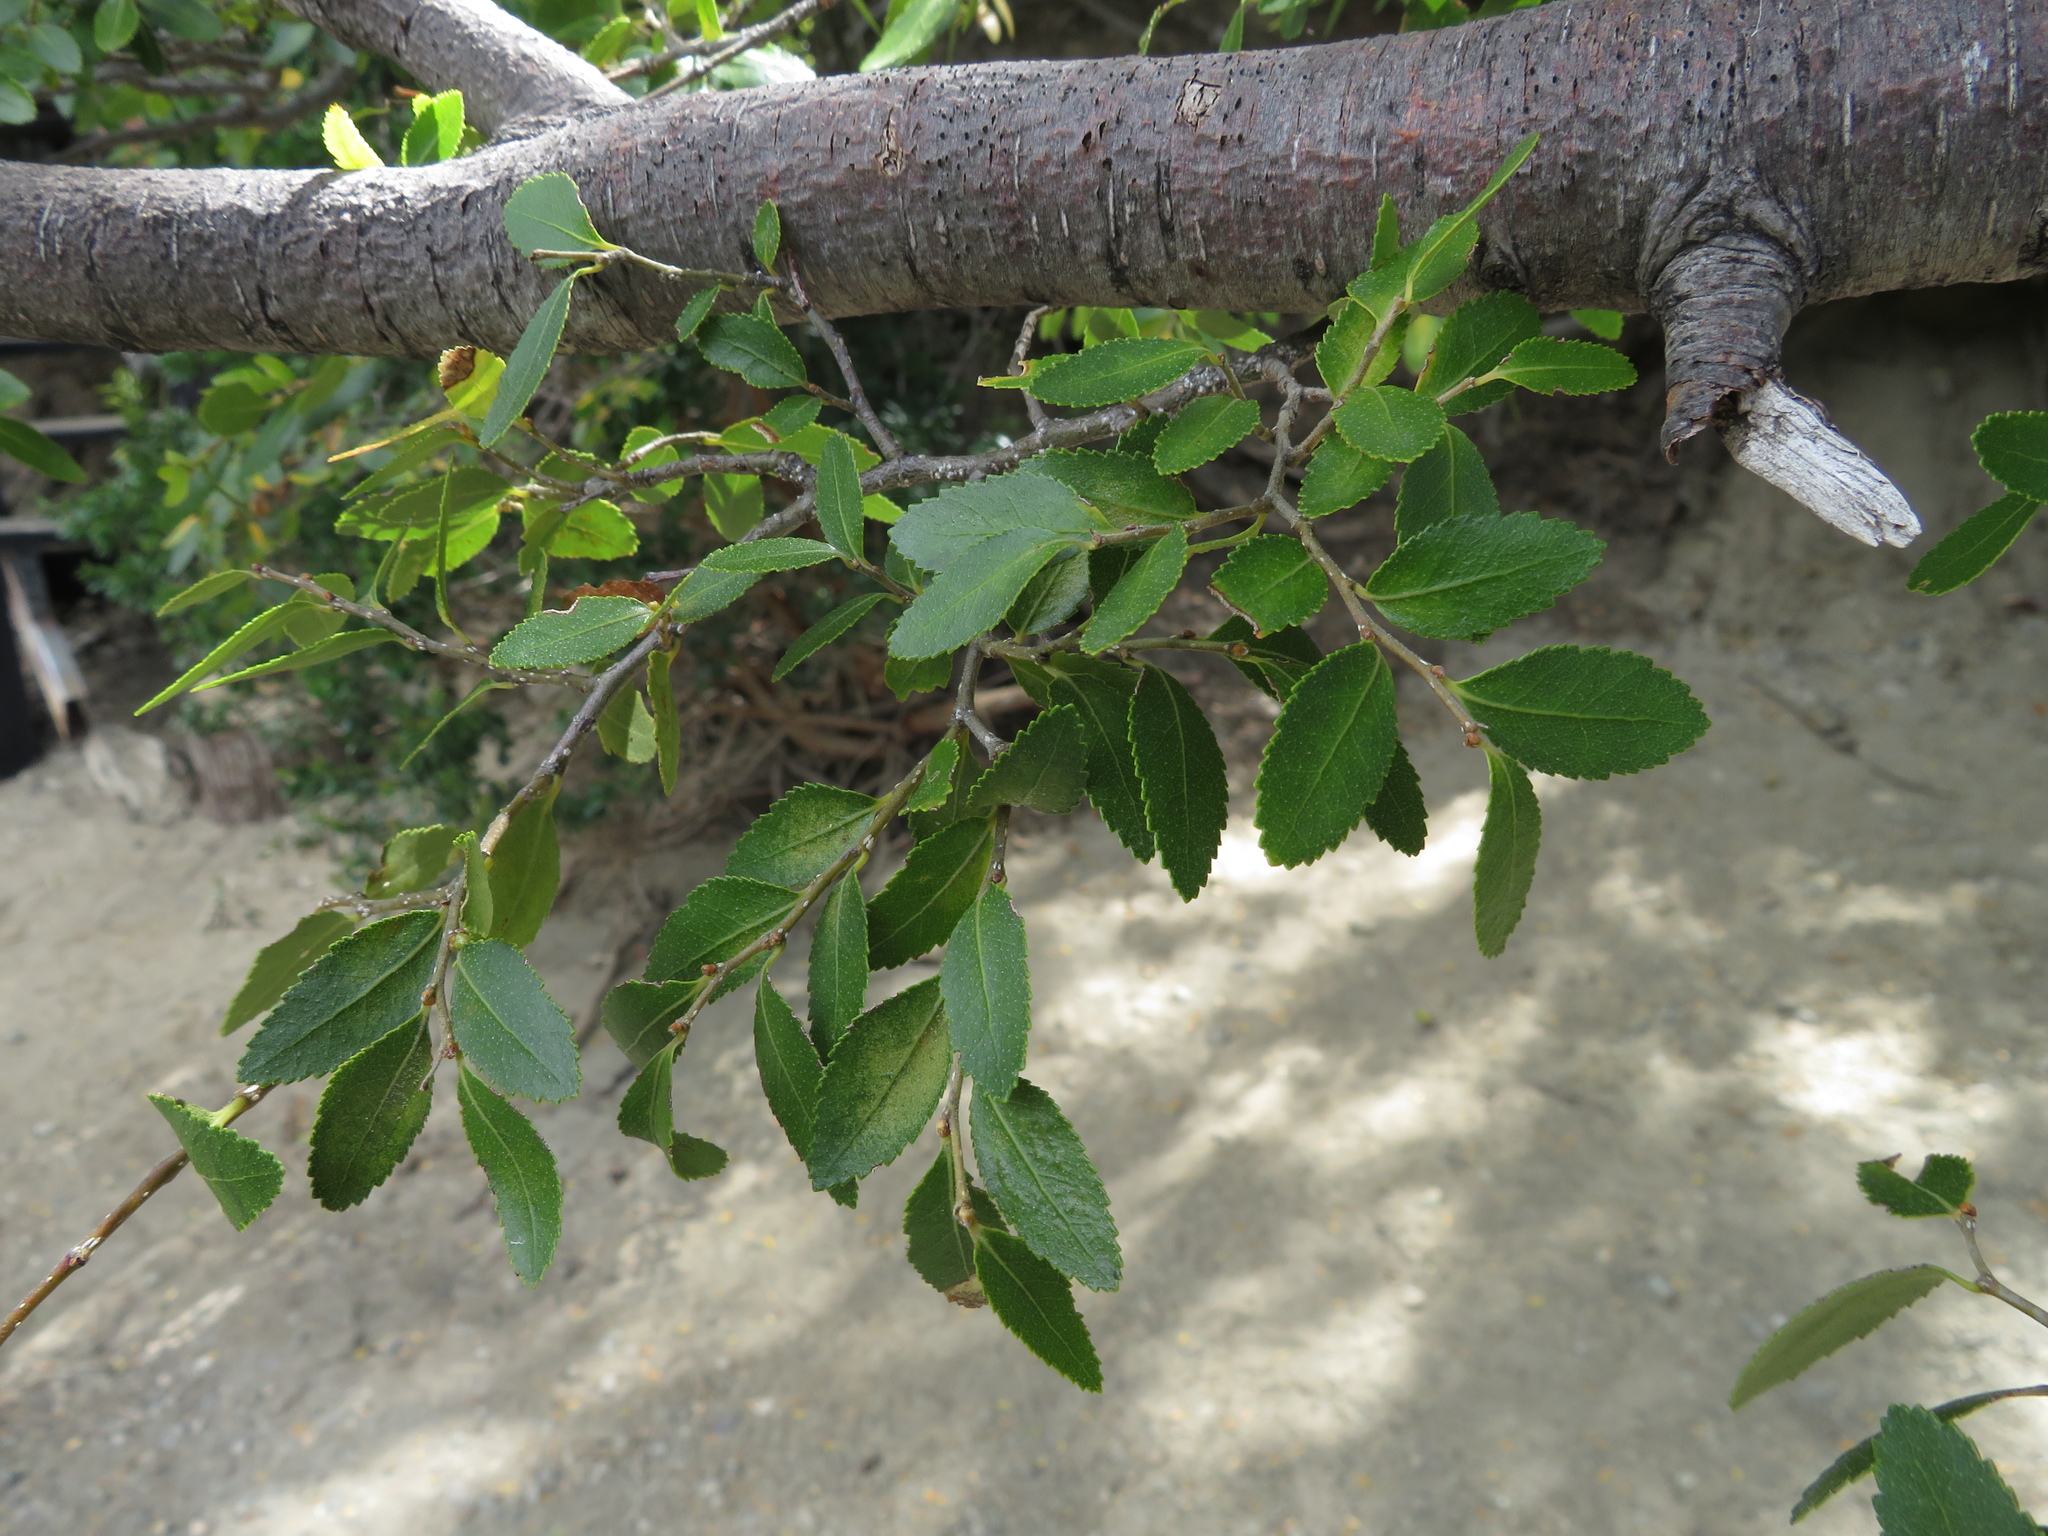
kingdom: Plantae
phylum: Tracheophyta
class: Magnoliopsida
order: Fagales
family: Nothofagaceae
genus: Nothofagus
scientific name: Nothofagus dombeyi
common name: Coigue
